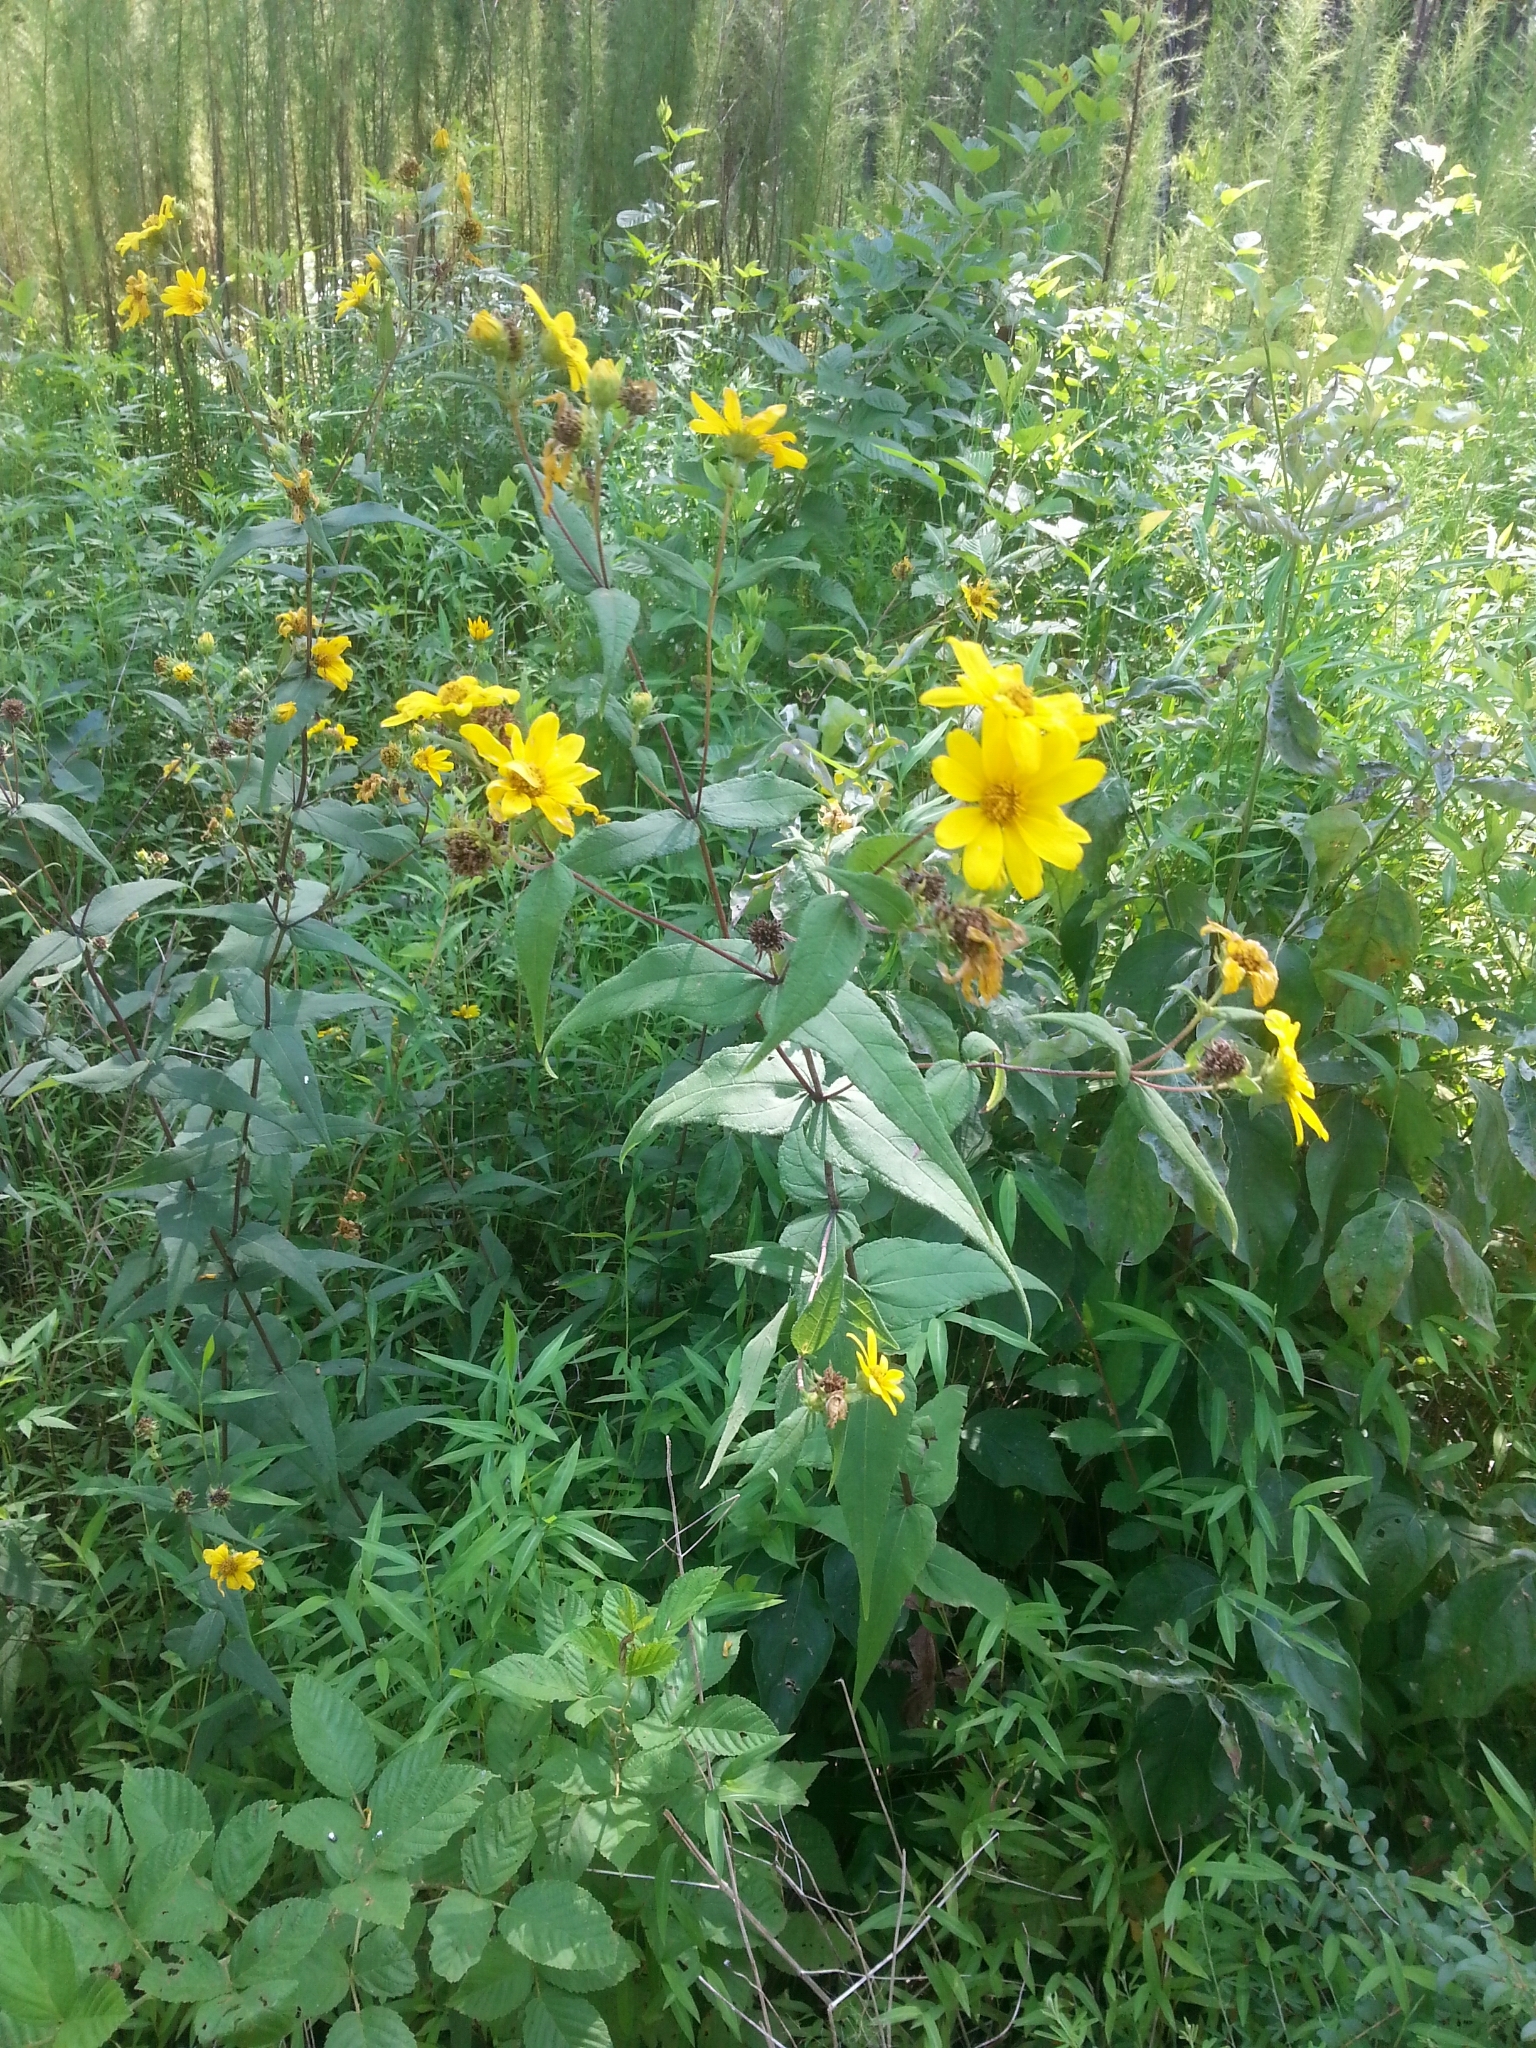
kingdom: Plantae
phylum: Tracheophyta
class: Magnoliopsida
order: Asterales
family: Asteraceae
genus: Helianthus
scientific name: Helianthus divaricatus
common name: Divergent sunflower
